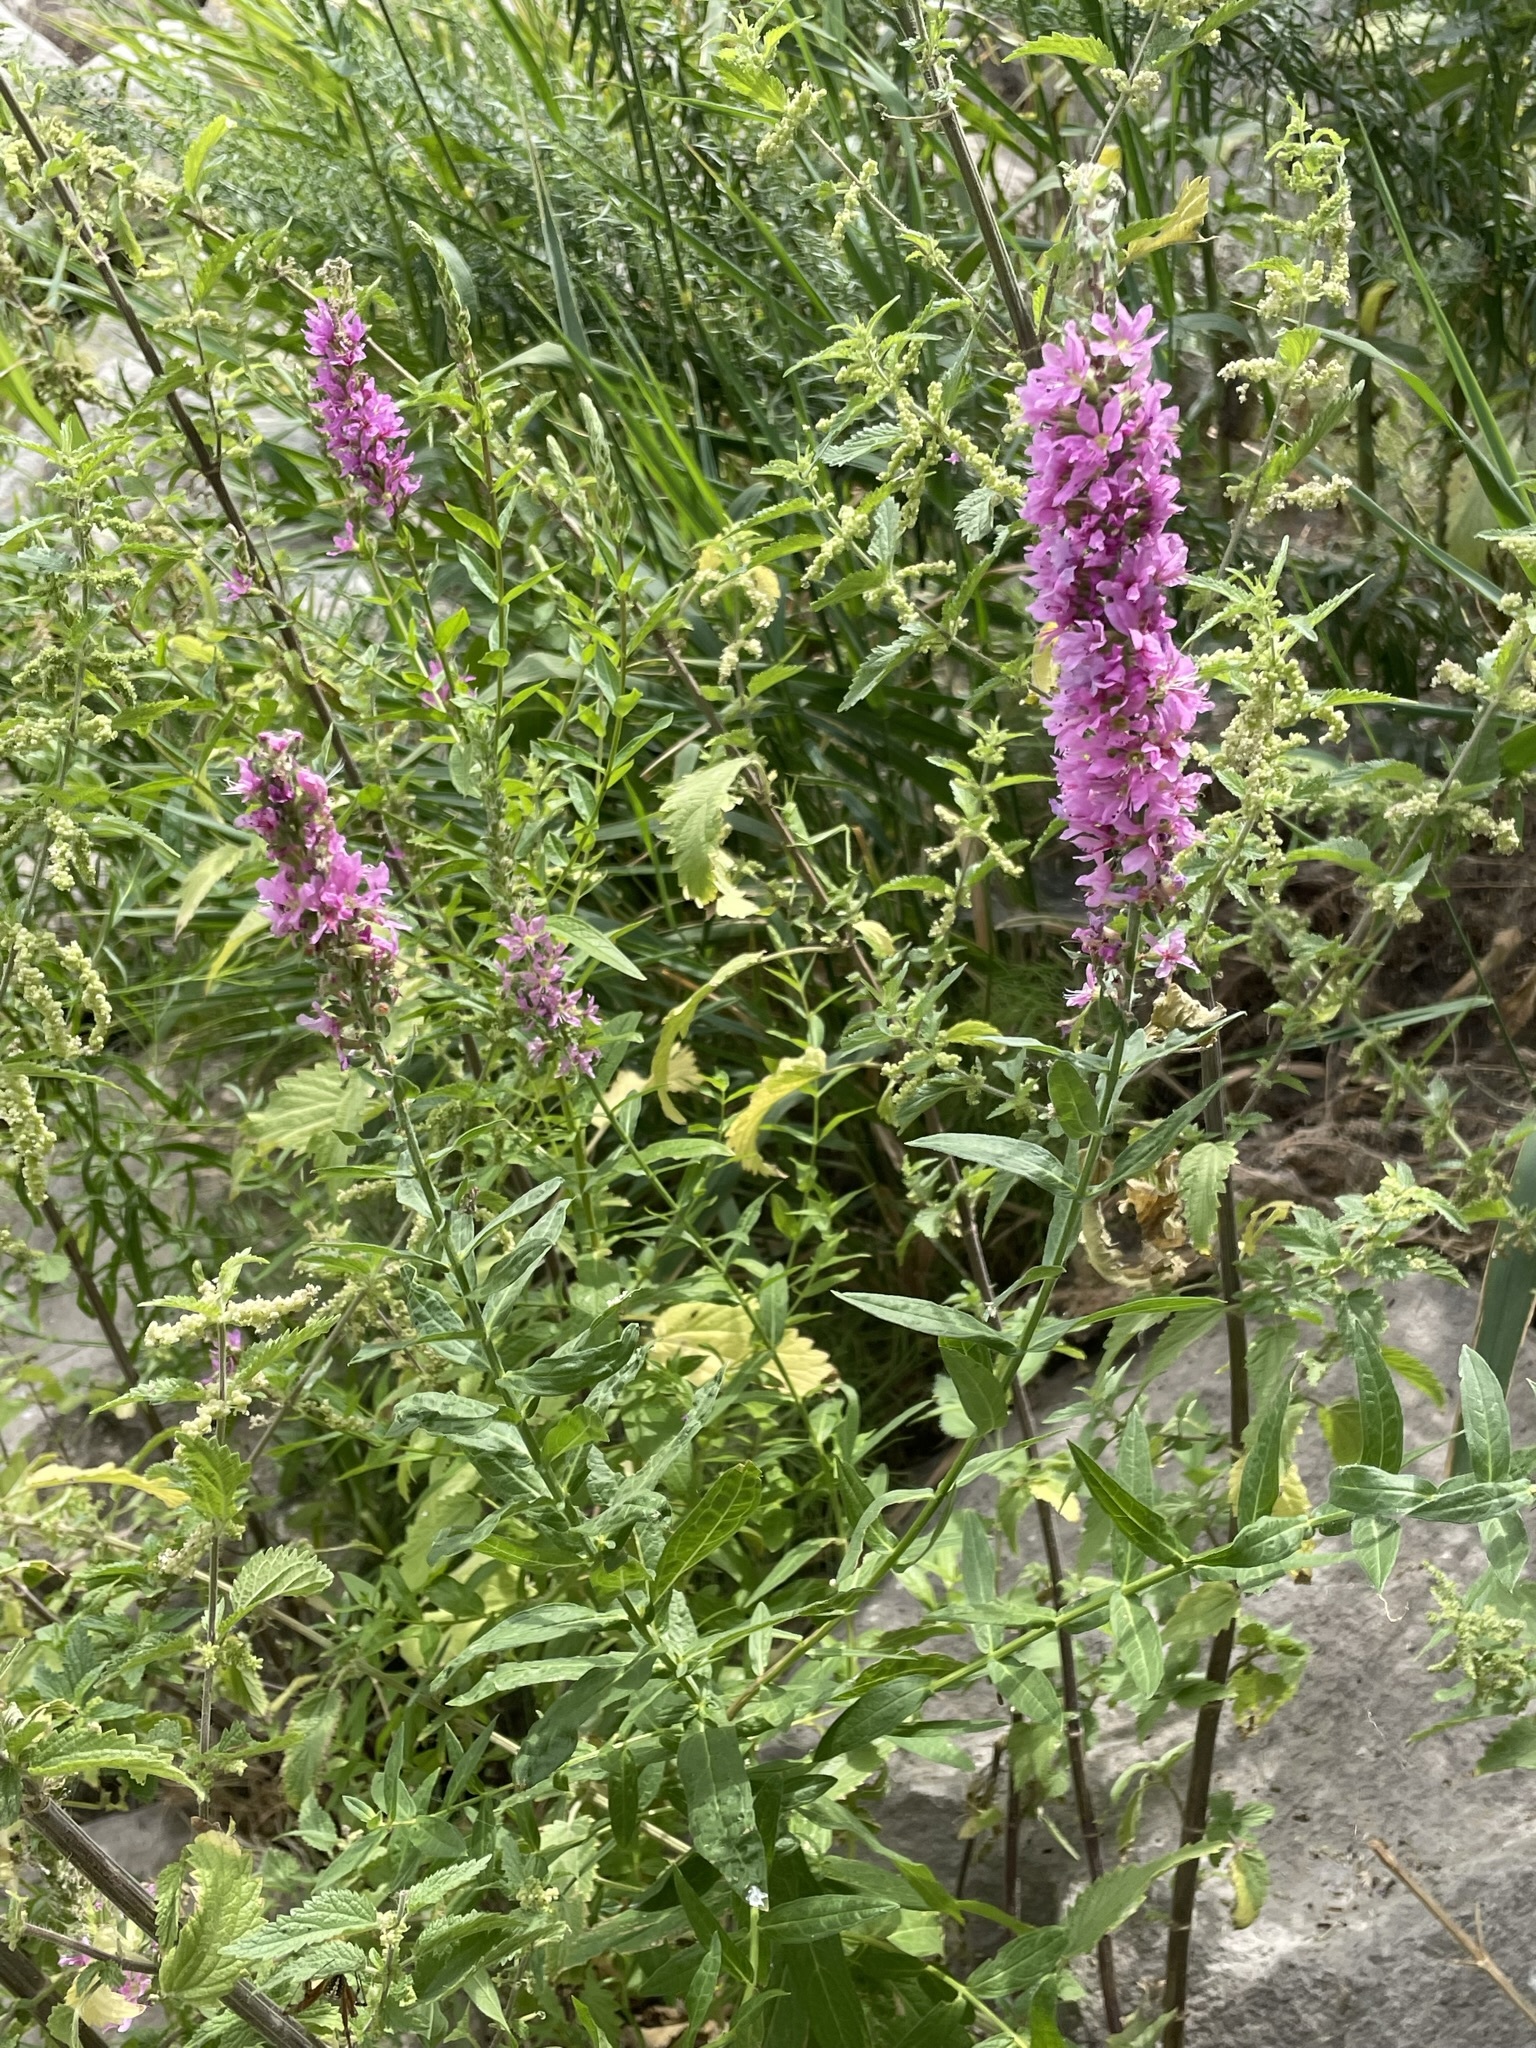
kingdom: Plantae
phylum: Tracheophyta
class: Magnoliopsida
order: Myrtales
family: Lythraceae
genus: Lythrum
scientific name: Lythrum salicaria
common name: Purple loosestrife
